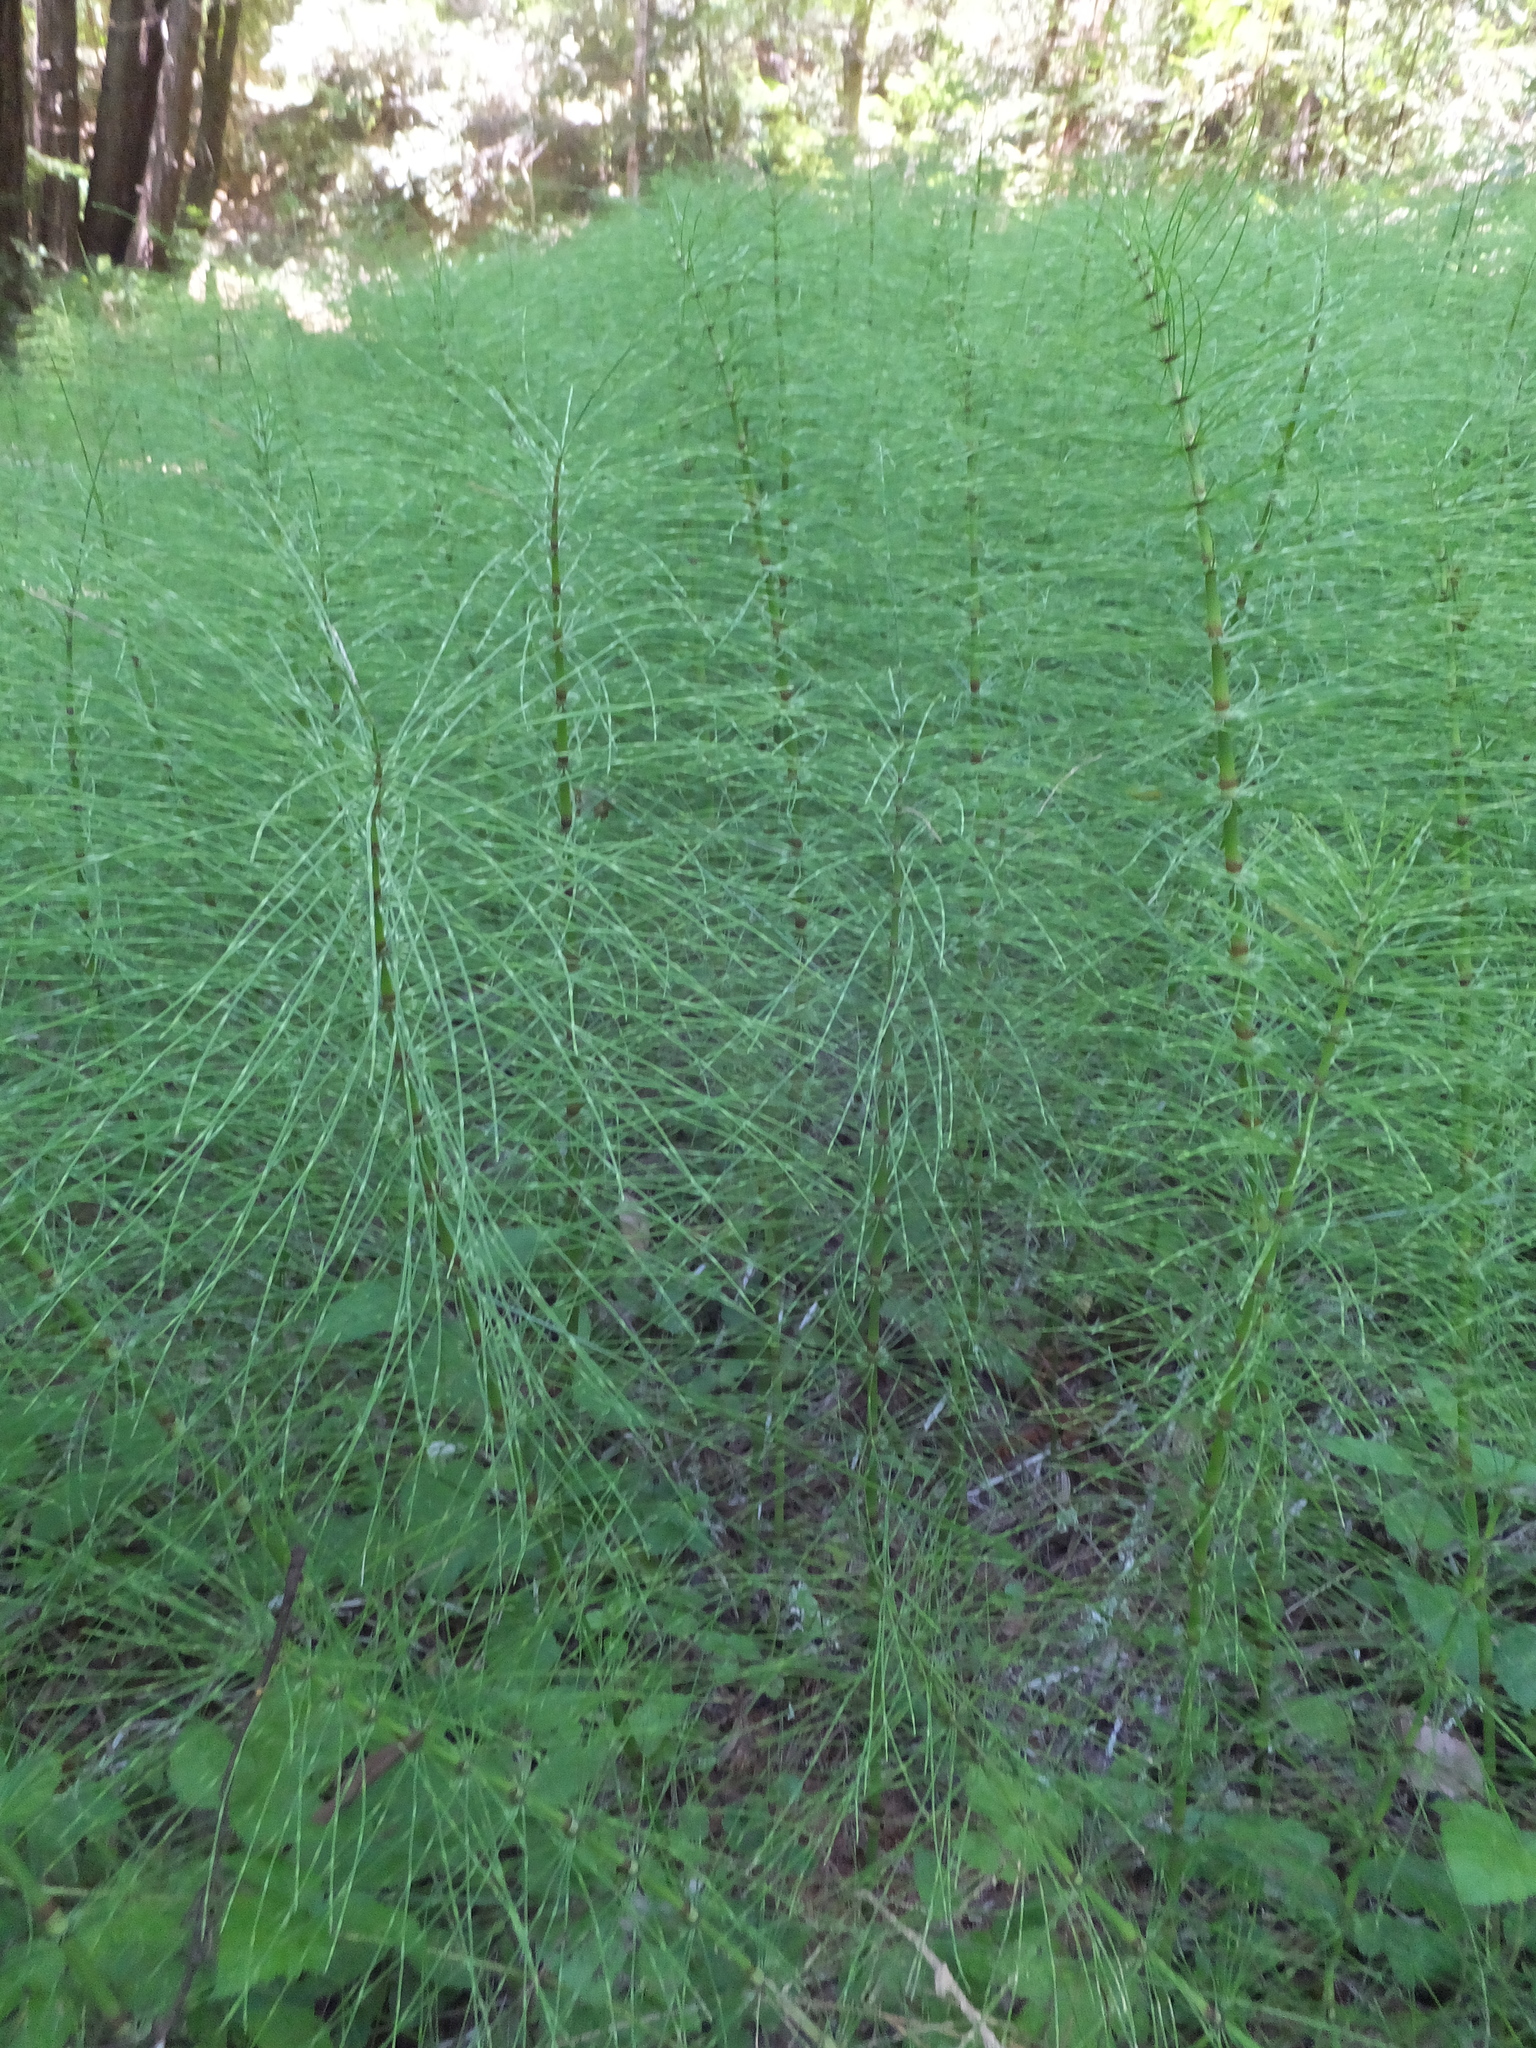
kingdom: Plantae
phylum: Tracheophyta
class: Polypodiopsida
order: Equisetales
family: Equisetaceae
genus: Equisetum
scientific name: Equisetum telmateia
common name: Great horsetail
